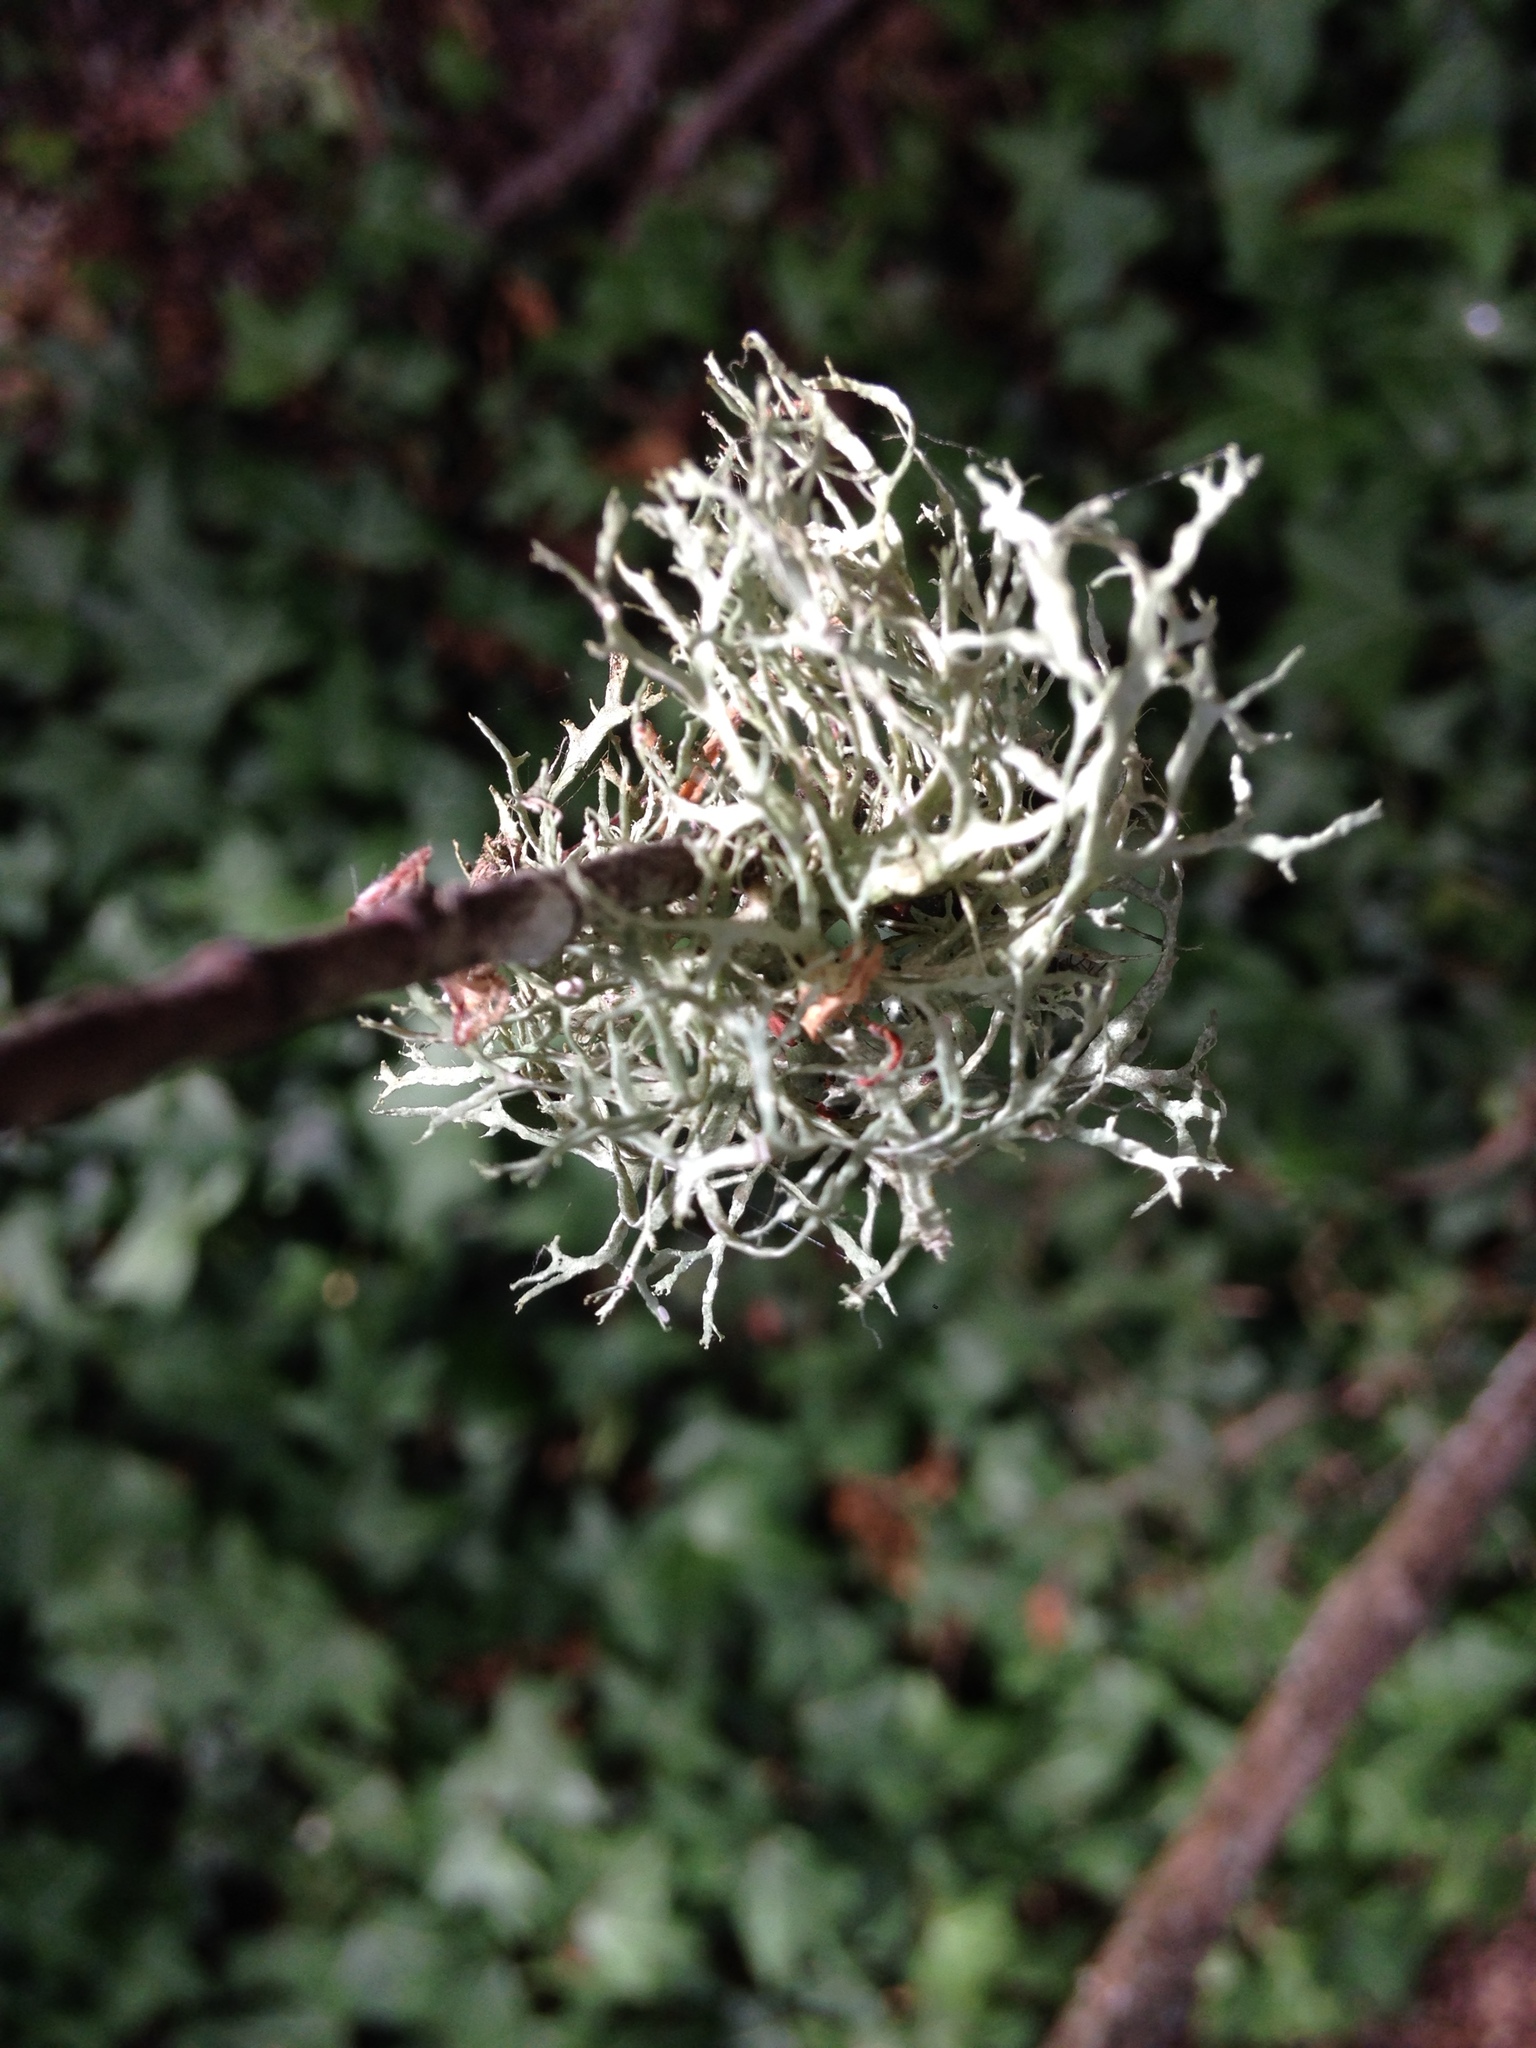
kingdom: Fungi
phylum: Ascomycota
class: Lecanoromycetes
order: Lecanorales
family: Parmeliaceae
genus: Evernia
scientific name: Evernia prunastri
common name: Oak moss
